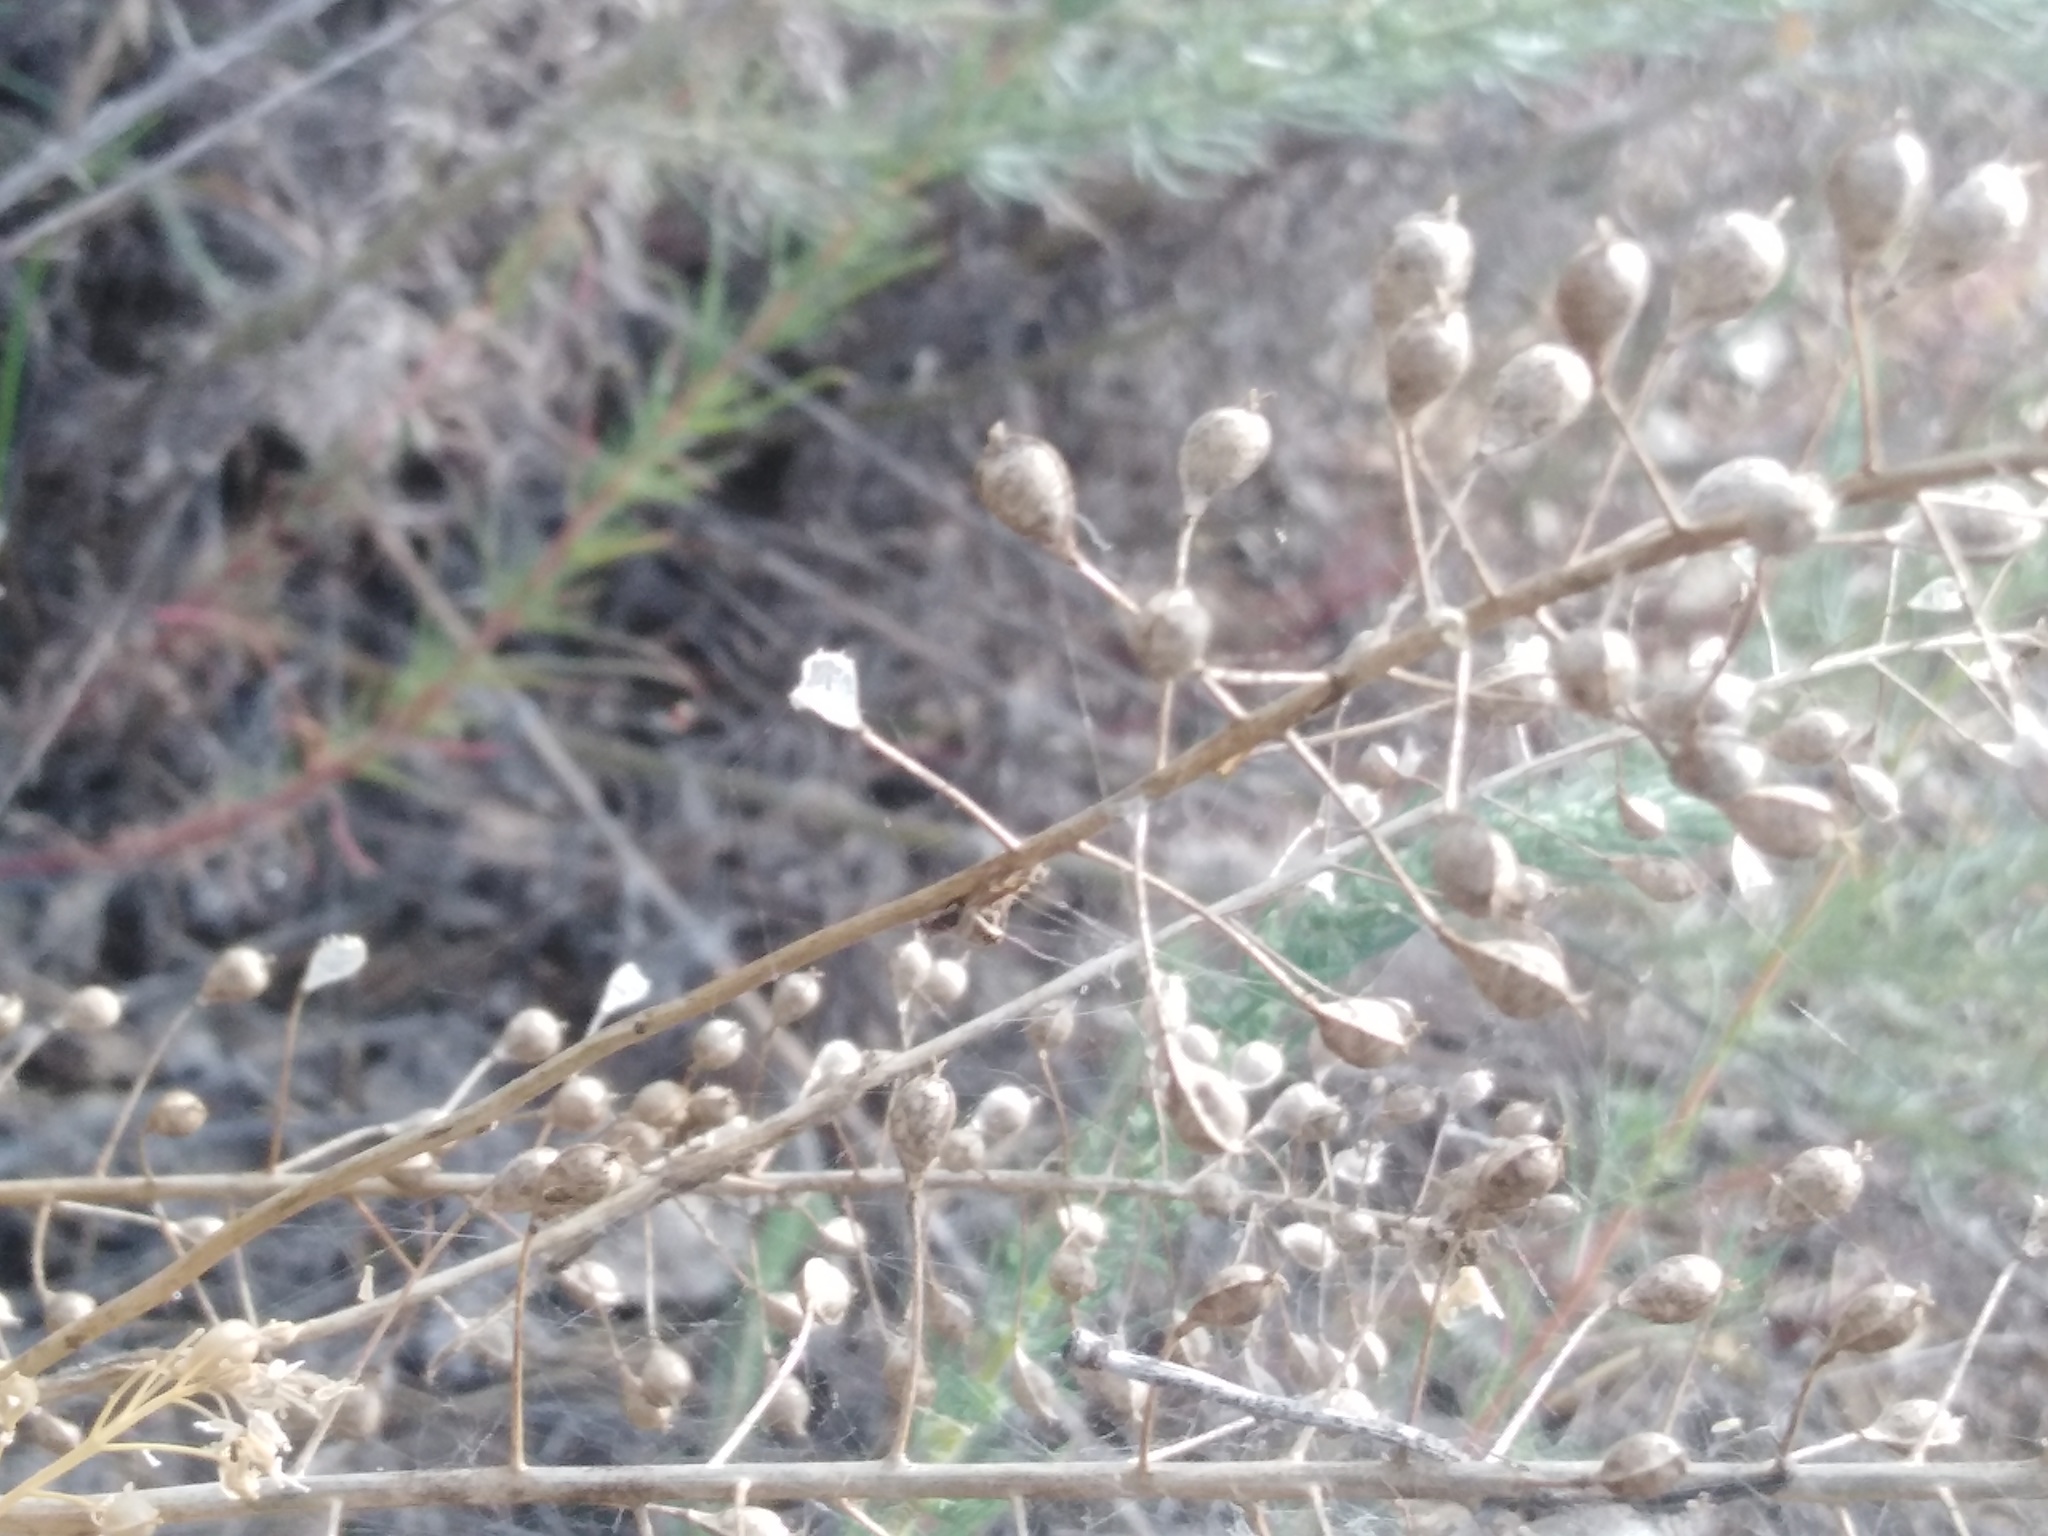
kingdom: Plantae
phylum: Tracheophyta
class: Magnoliopsida
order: Brassicales
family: Brassicaceae
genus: Camelina
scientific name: Camelina microcarpa
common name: Lesser gold-of-pleasure
